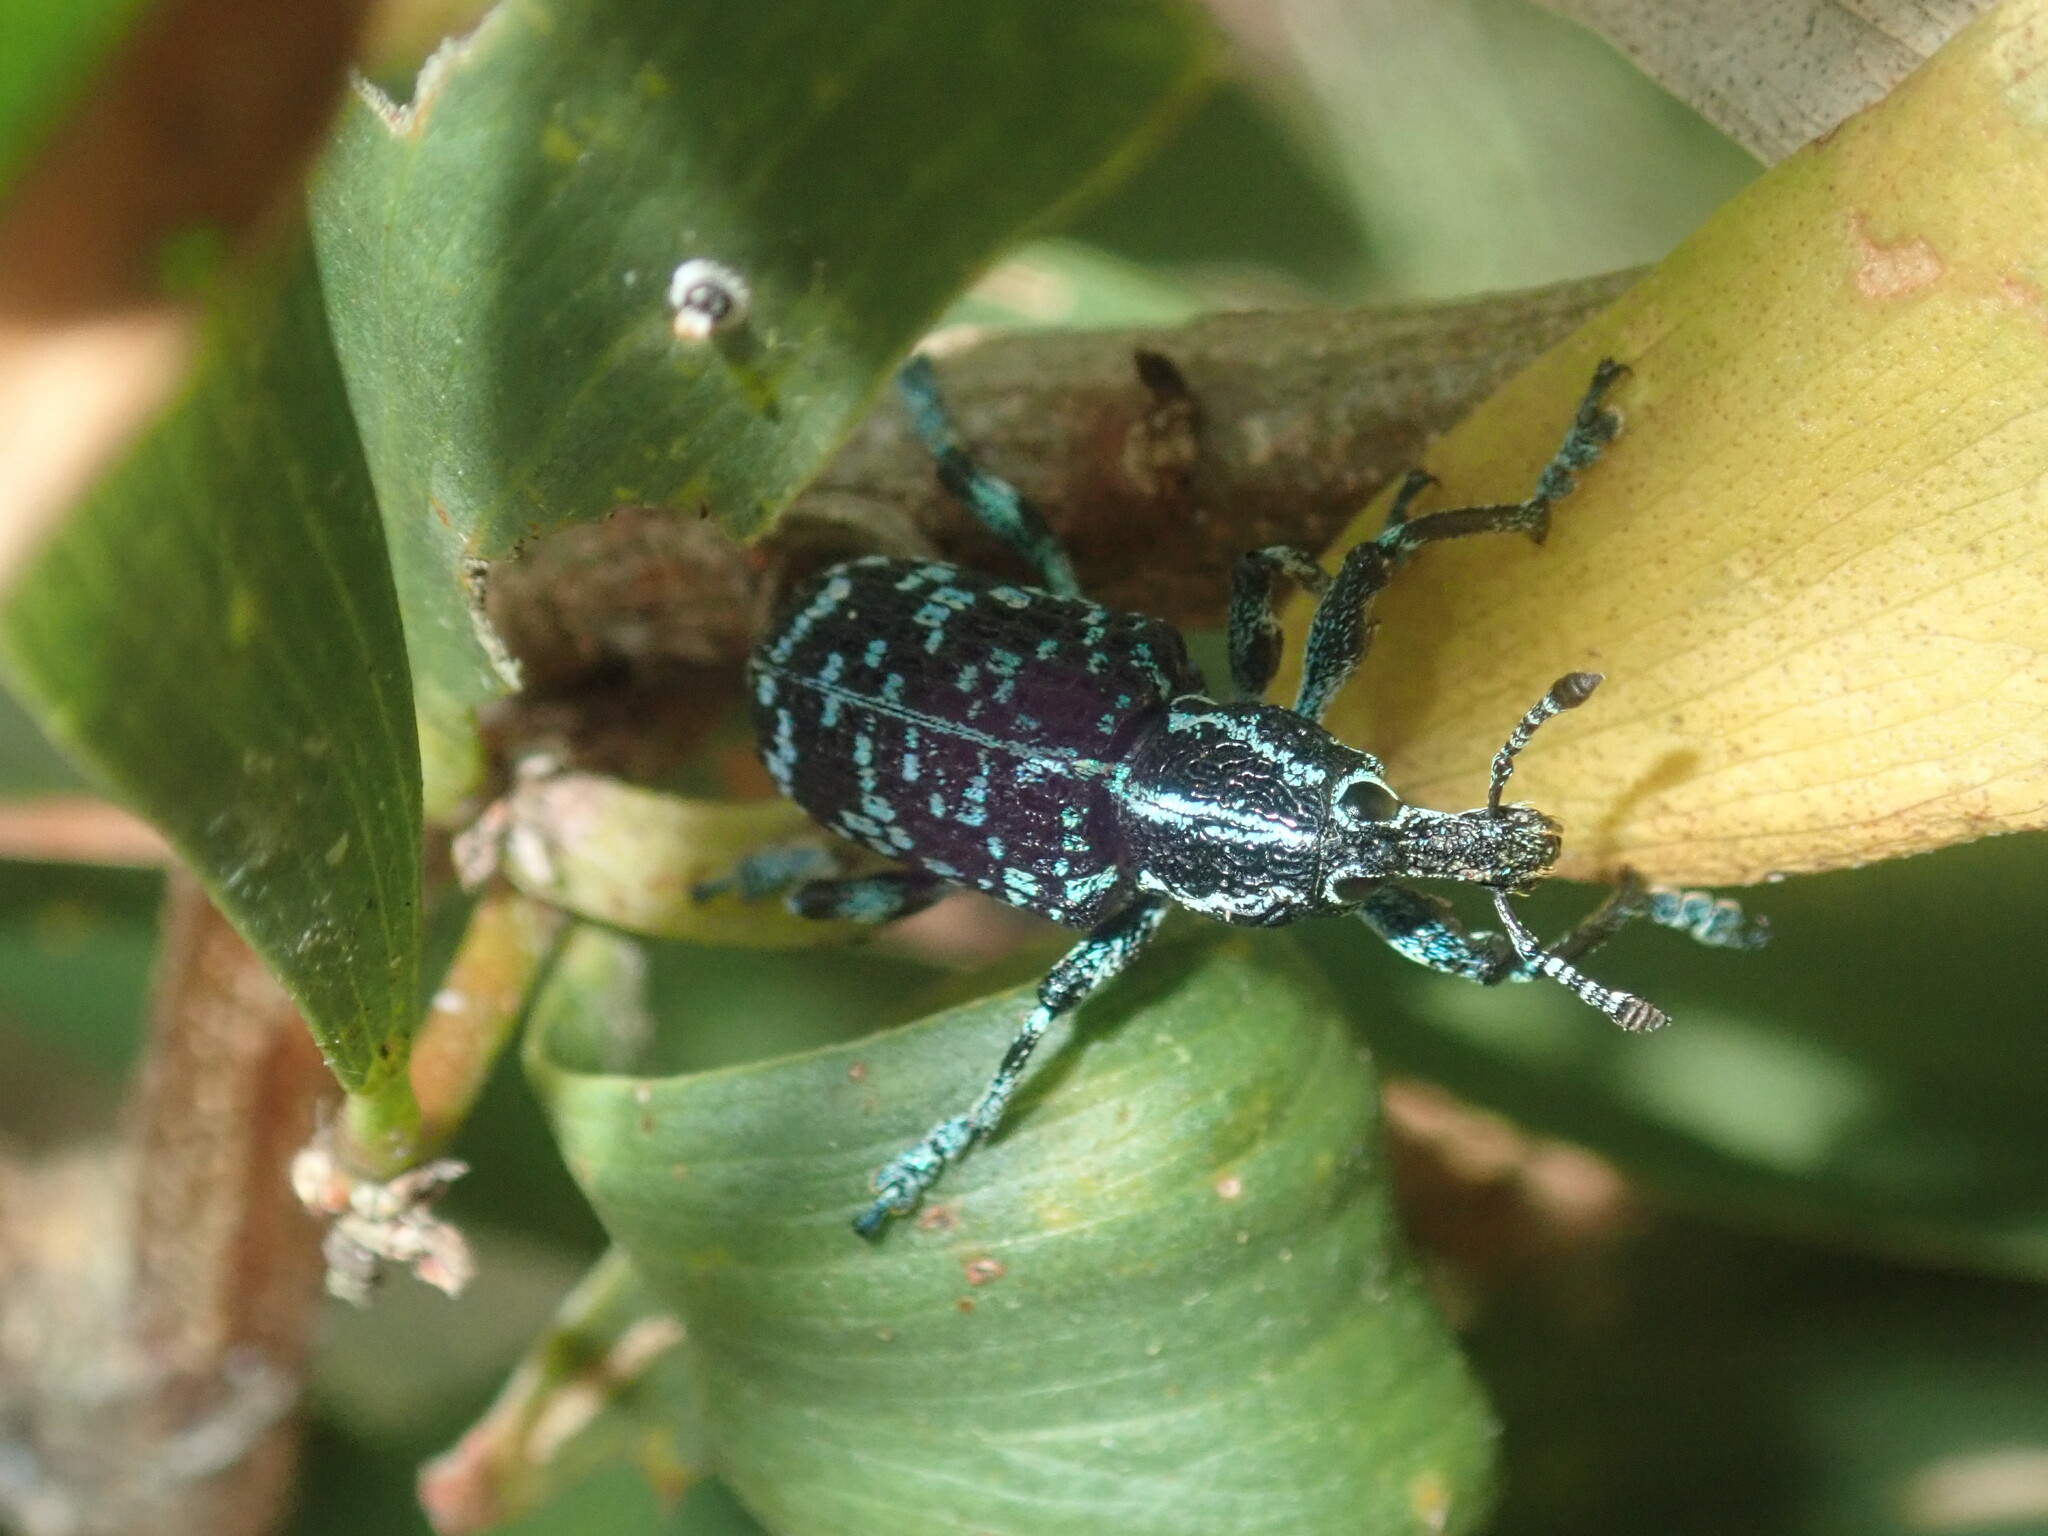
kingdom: Animalia
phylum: Arthropoda
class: Insecta
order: Coleoptera
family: Curculionidae
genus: Chrysolopus
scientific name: Chrysolopus spectabilis
